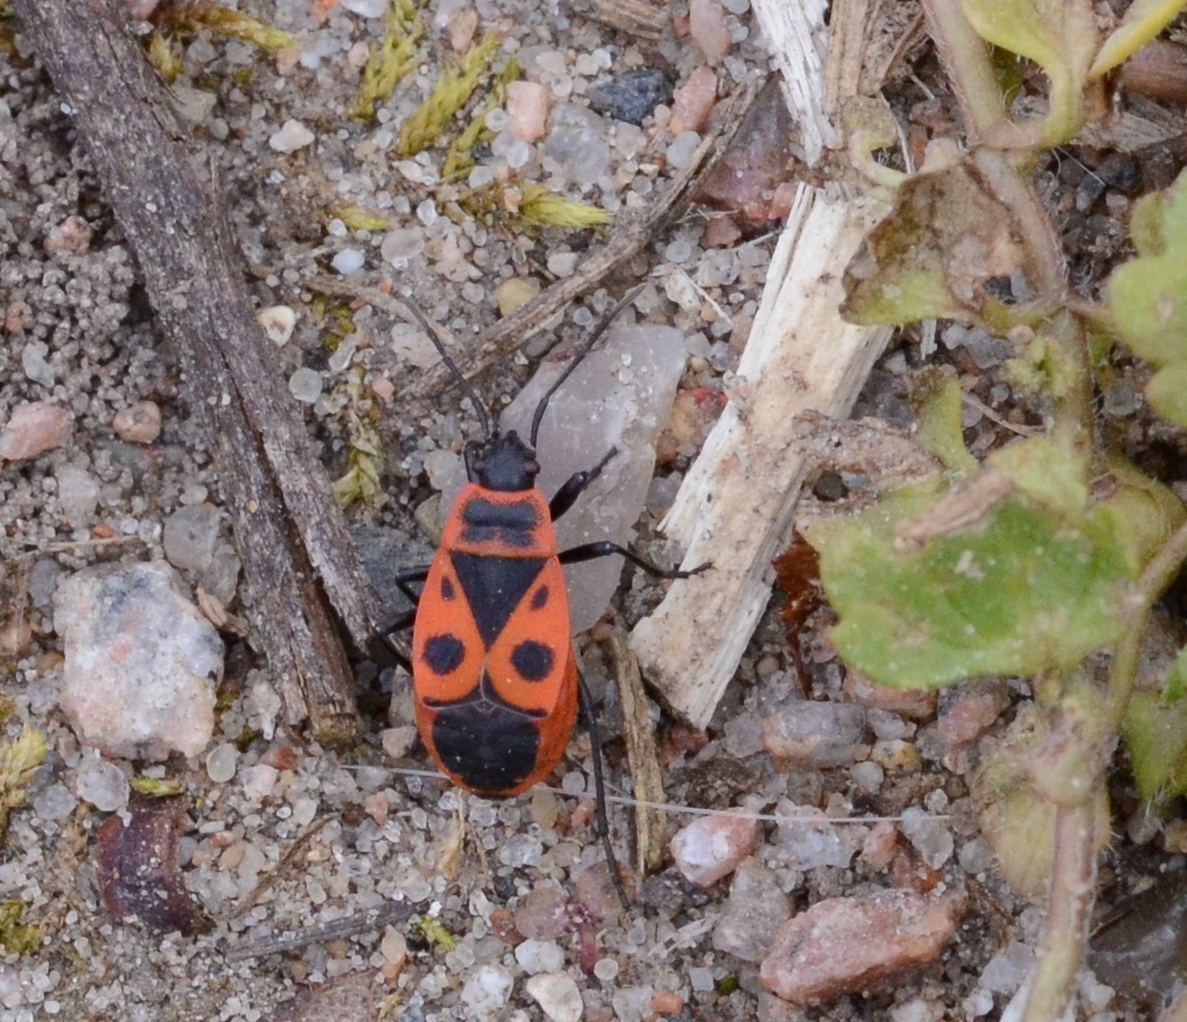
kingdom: Animalia
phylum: Arthropoda
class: Insecta
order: Hemiptera
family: Pyrrhocoridae
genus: Pyrrhocoris
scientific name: Pyrrhocoris apterus
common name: Firebug
